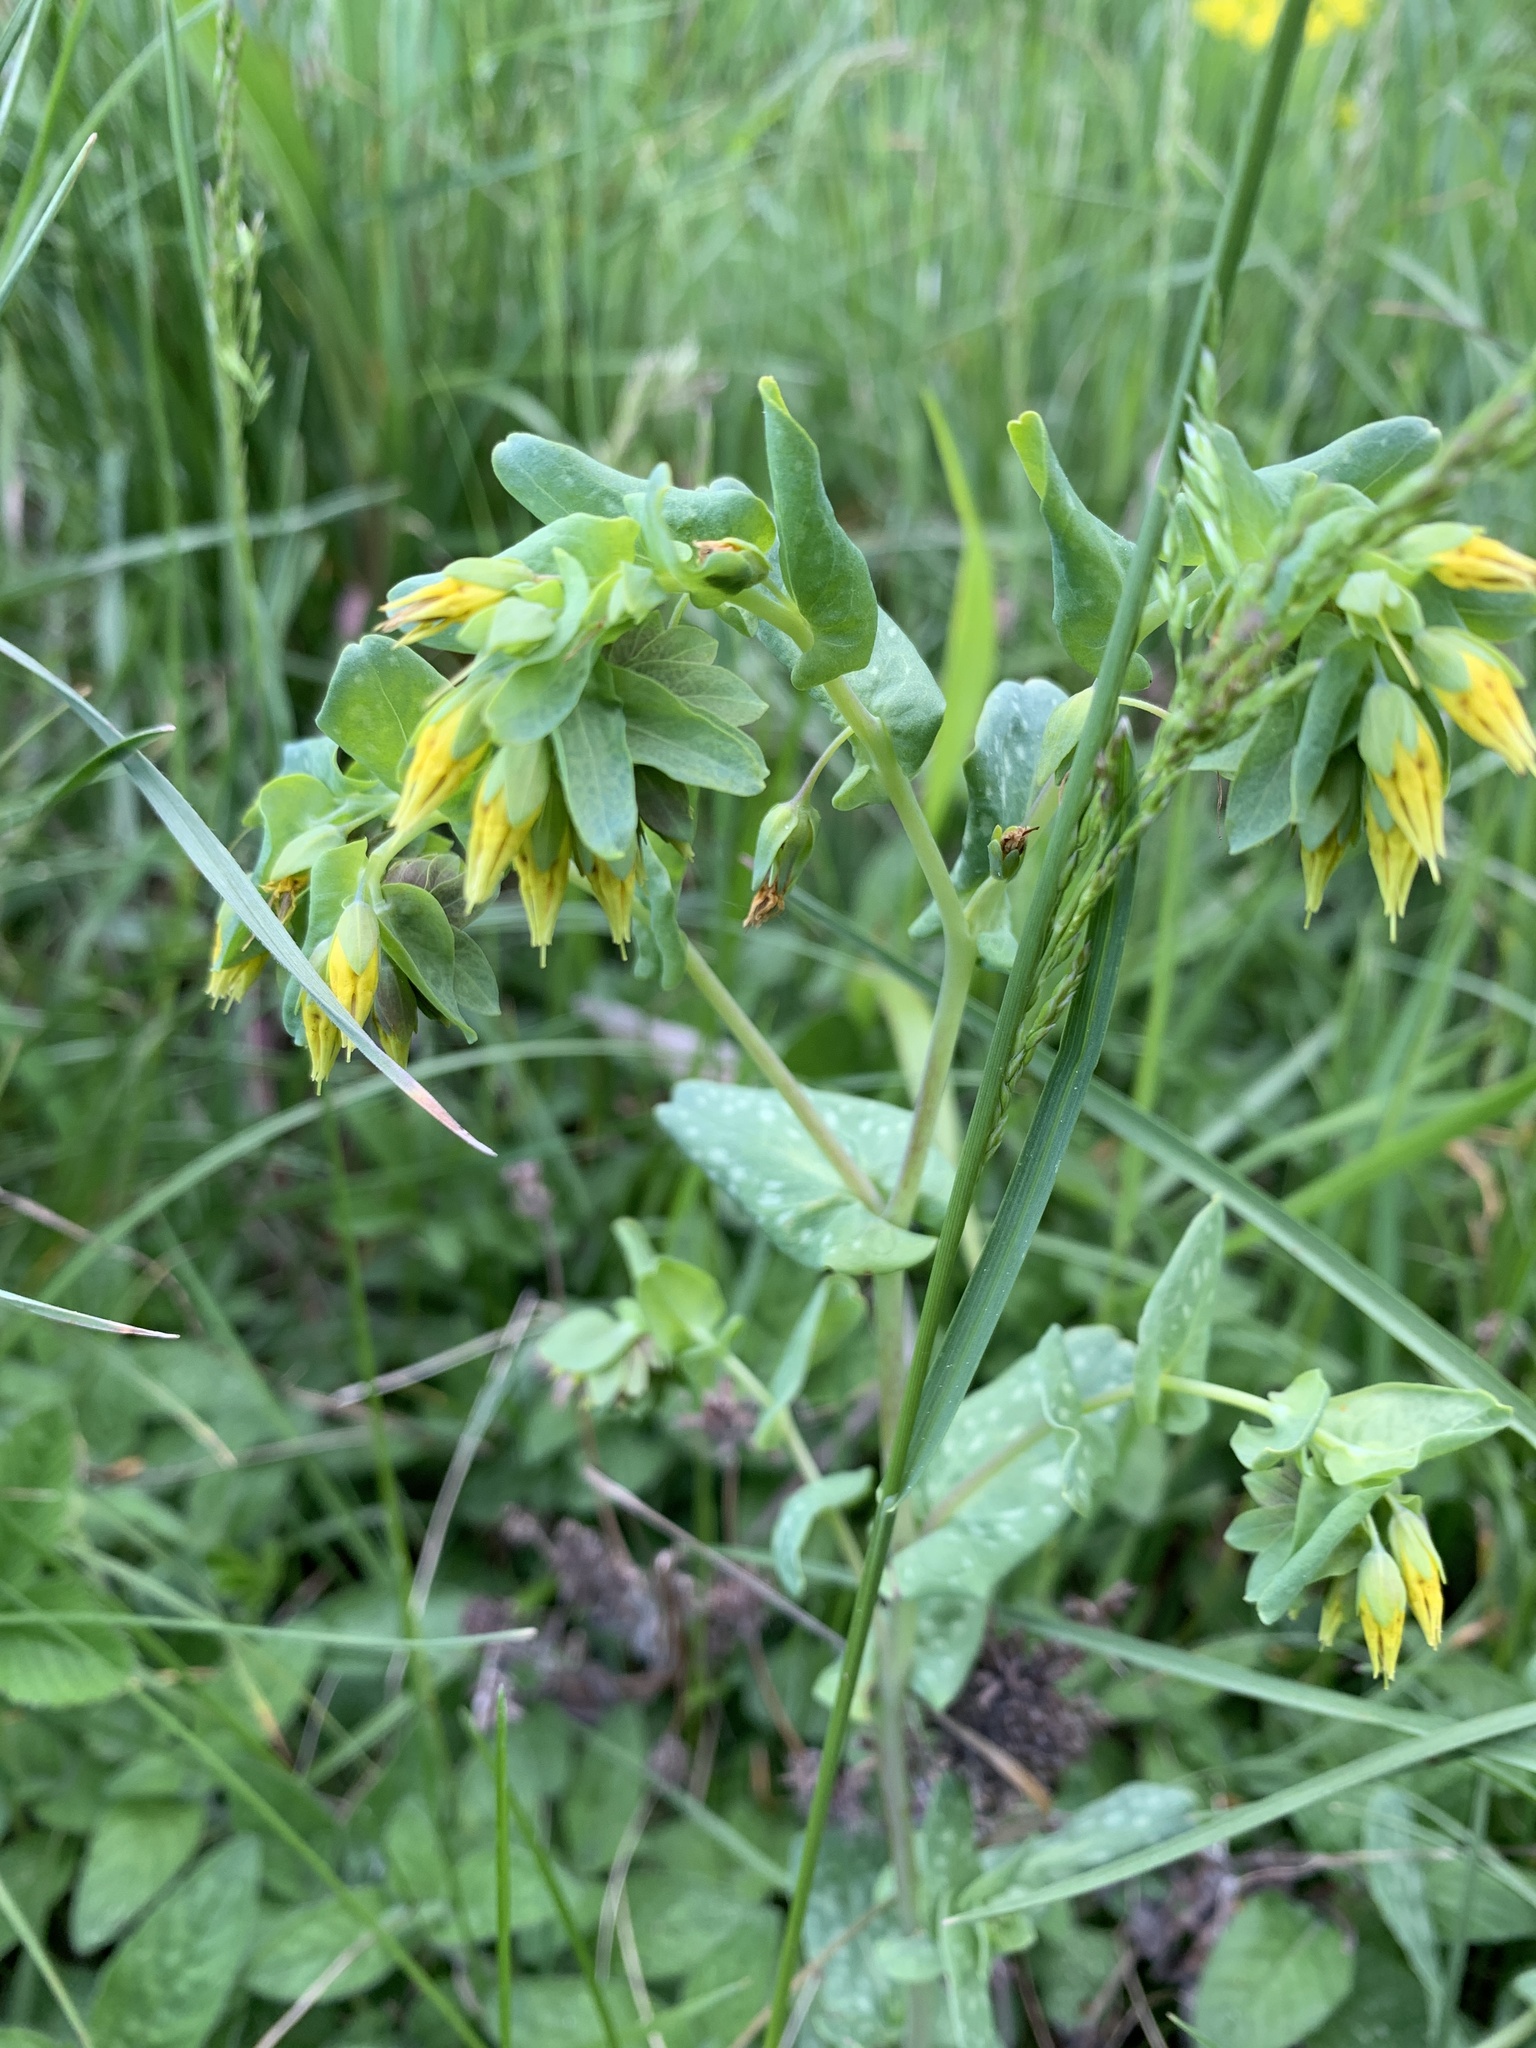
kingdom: Plantae
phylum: Tracheophyta
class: Magnoliopsida
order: Boraginales
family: Boraginaceae
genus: Cerinthe
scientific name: Cerinthe minor
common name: Lesser honeywort
